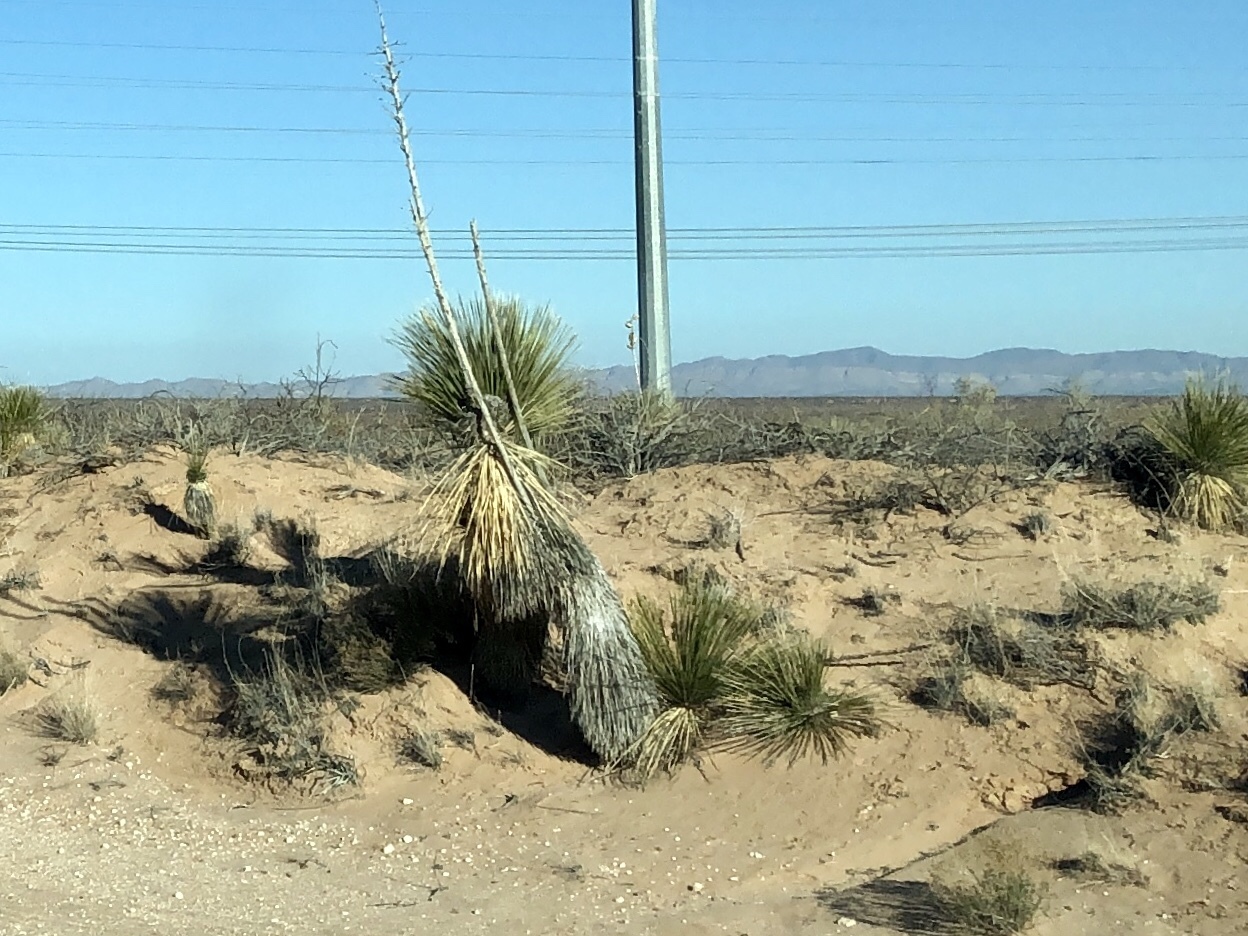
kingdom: Plantae
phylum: Tracheophyta
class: Liliopsida
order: Asparagales
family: Asparagaceae
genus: Yucca
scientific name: Yucca elata
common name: Palmella
